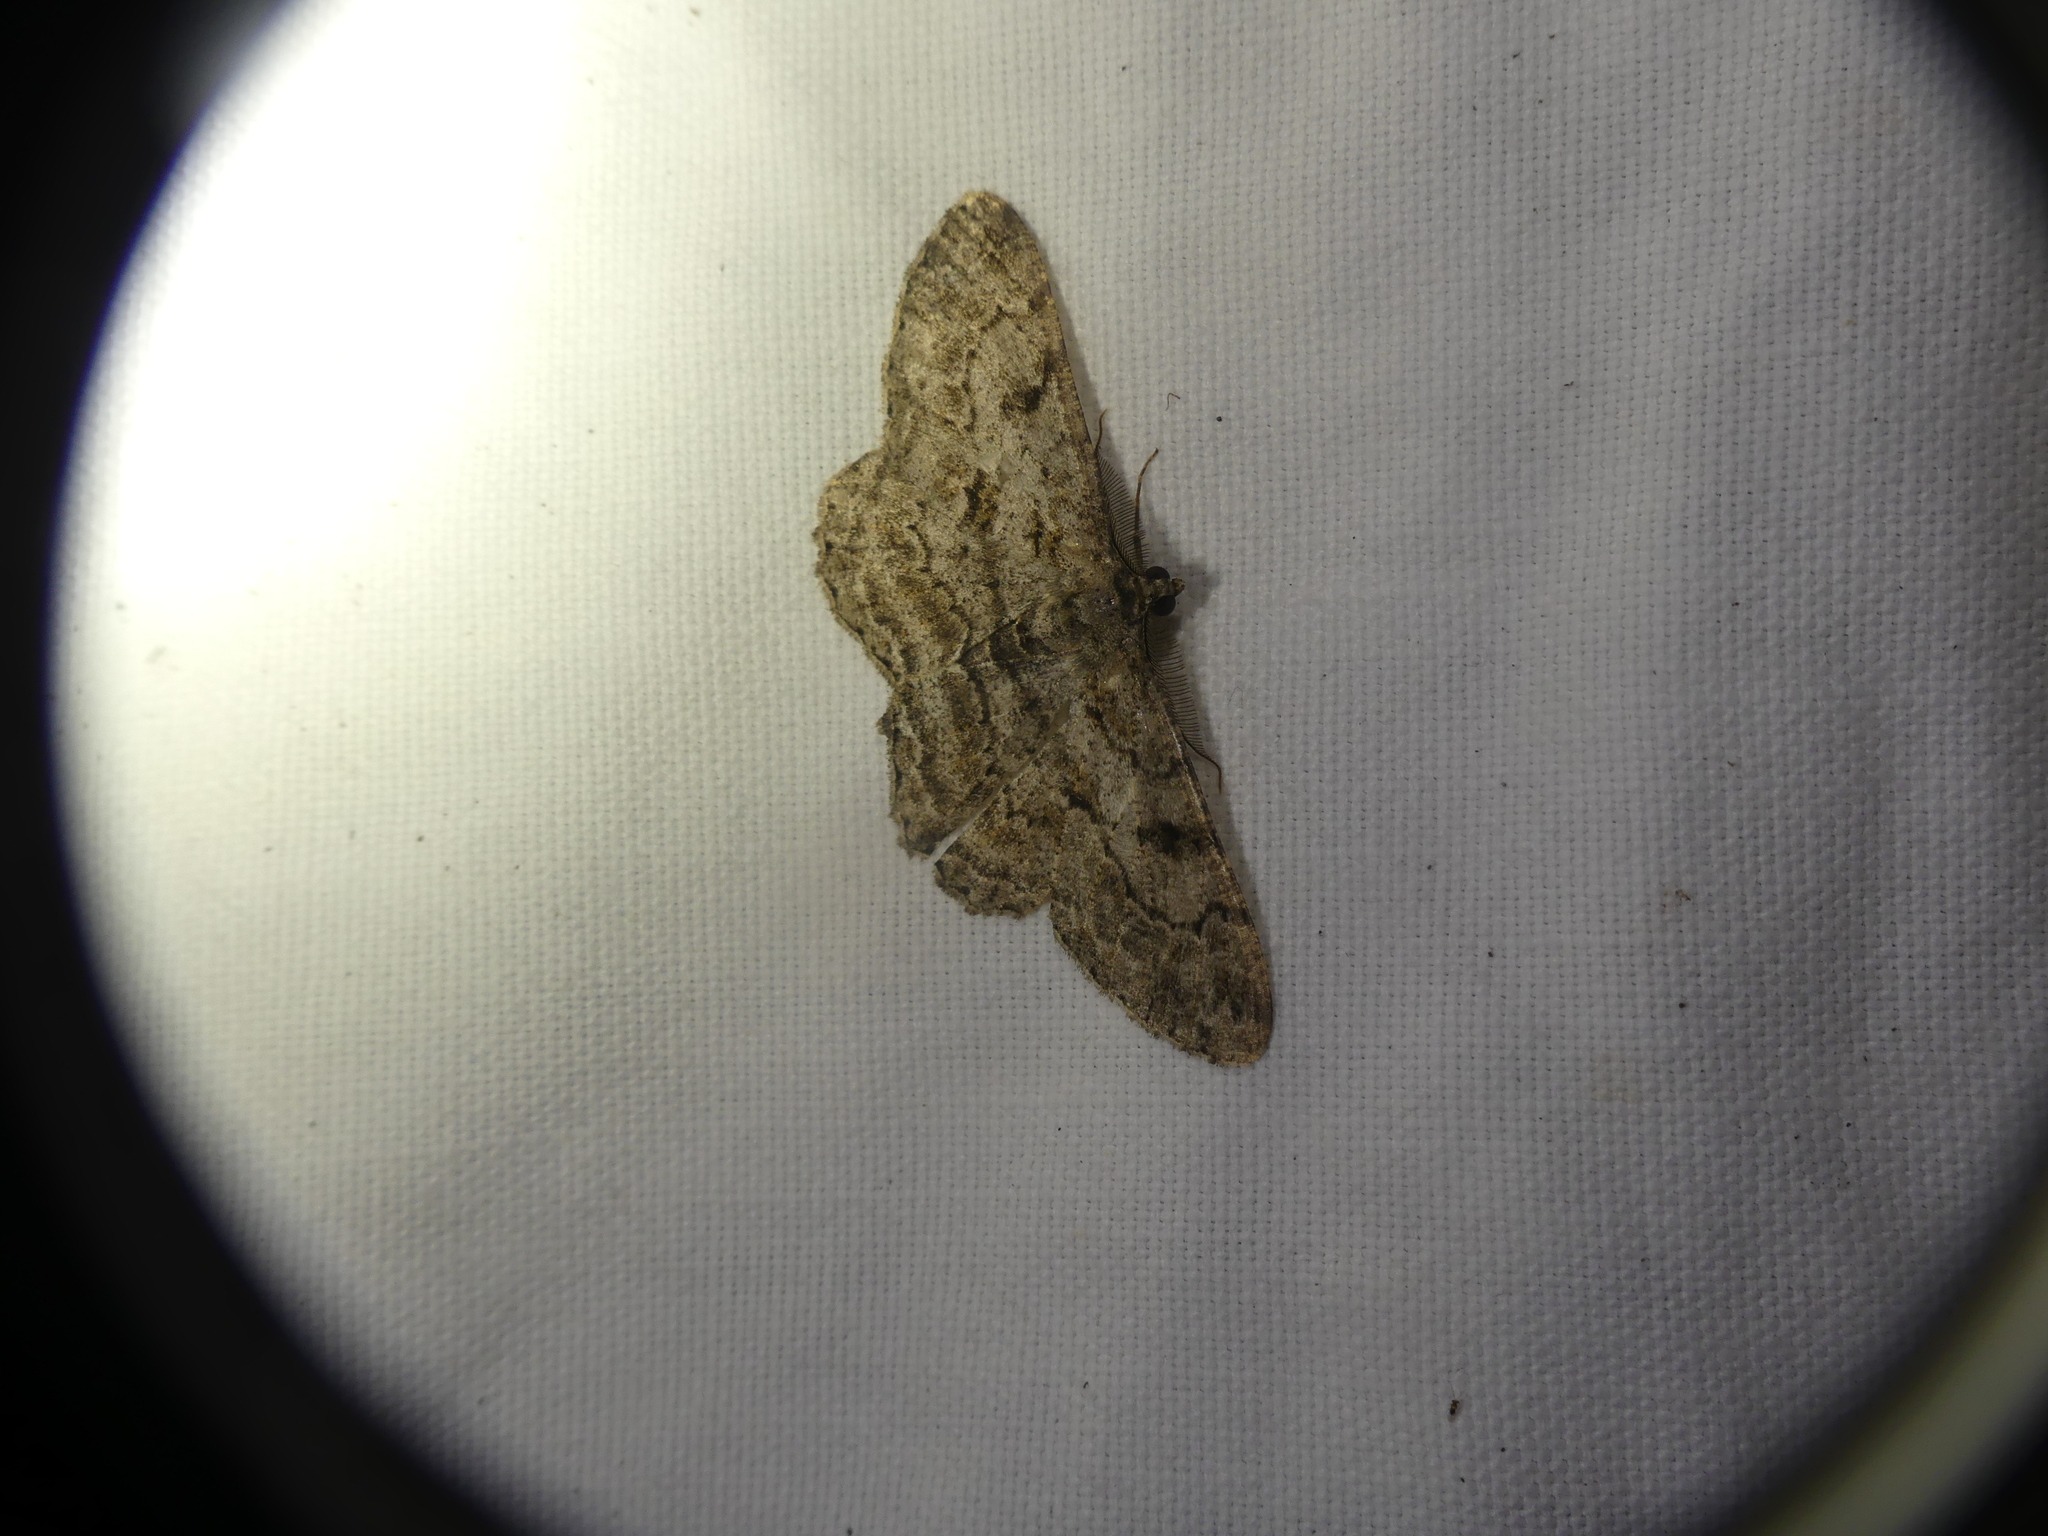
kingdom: Animalia
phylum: Arthropoda
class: Insecta
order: Lepidoptera
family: Geometridae
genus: Peribatodes
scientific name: Peribatodes rhomboidaria
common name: Willow beauty
